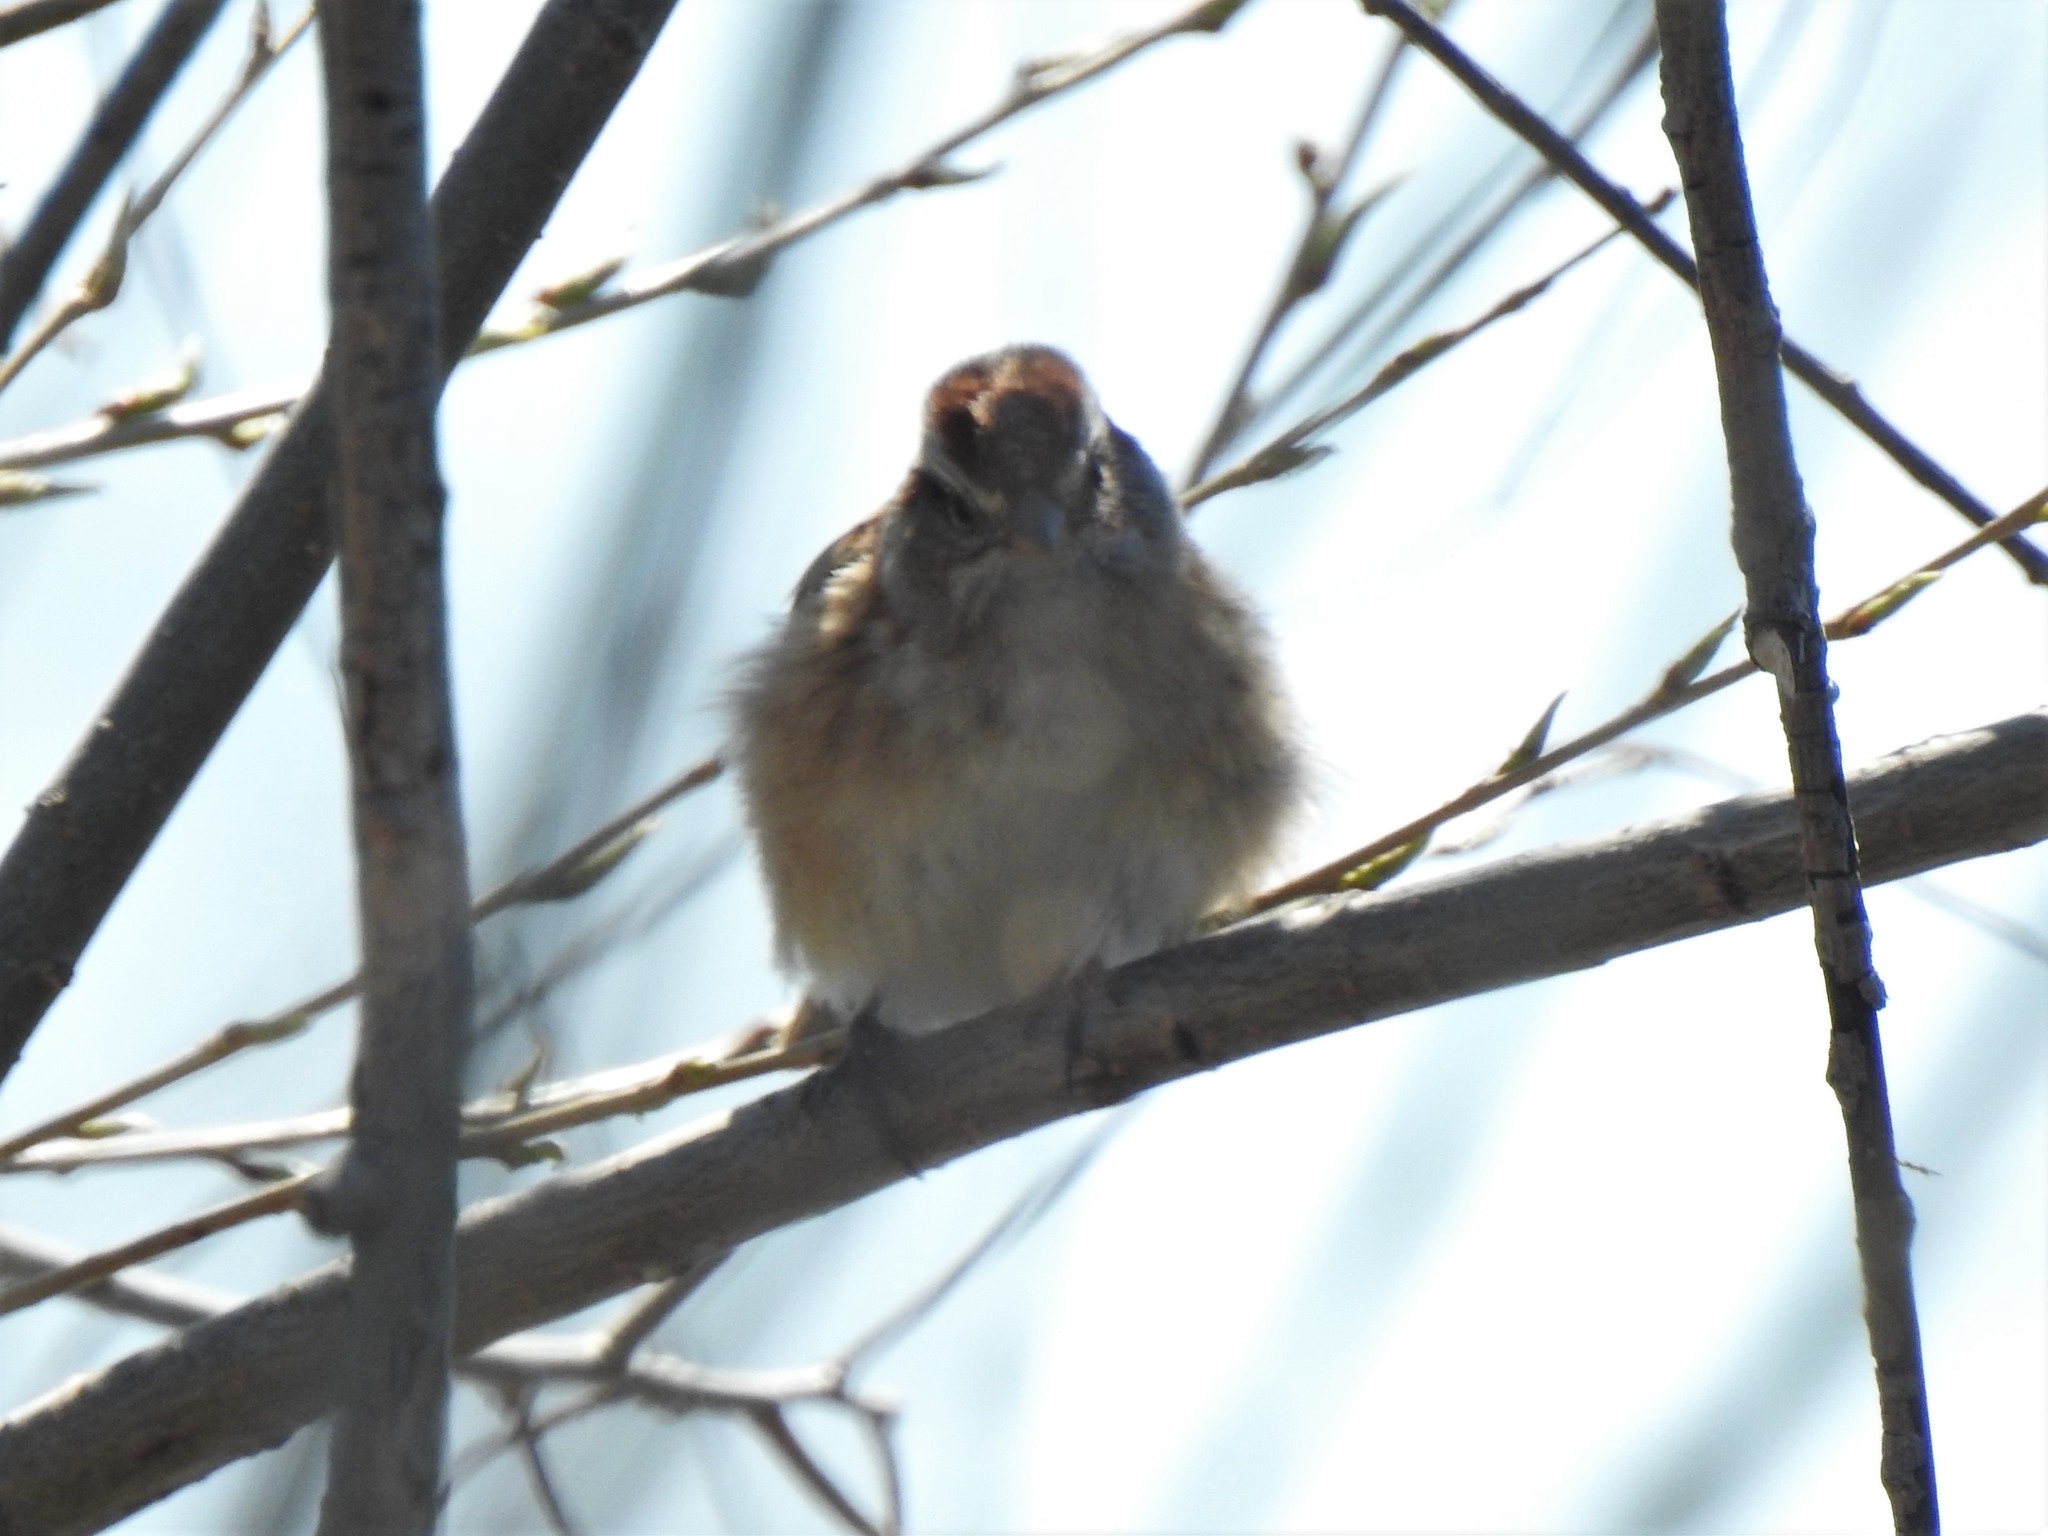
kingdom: Animalia
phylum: Chordata
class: Aves
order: Passeriformes
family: Passerellidae
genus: Spizelloides
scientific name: Spizelloides arborea
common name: American tree sparrow
